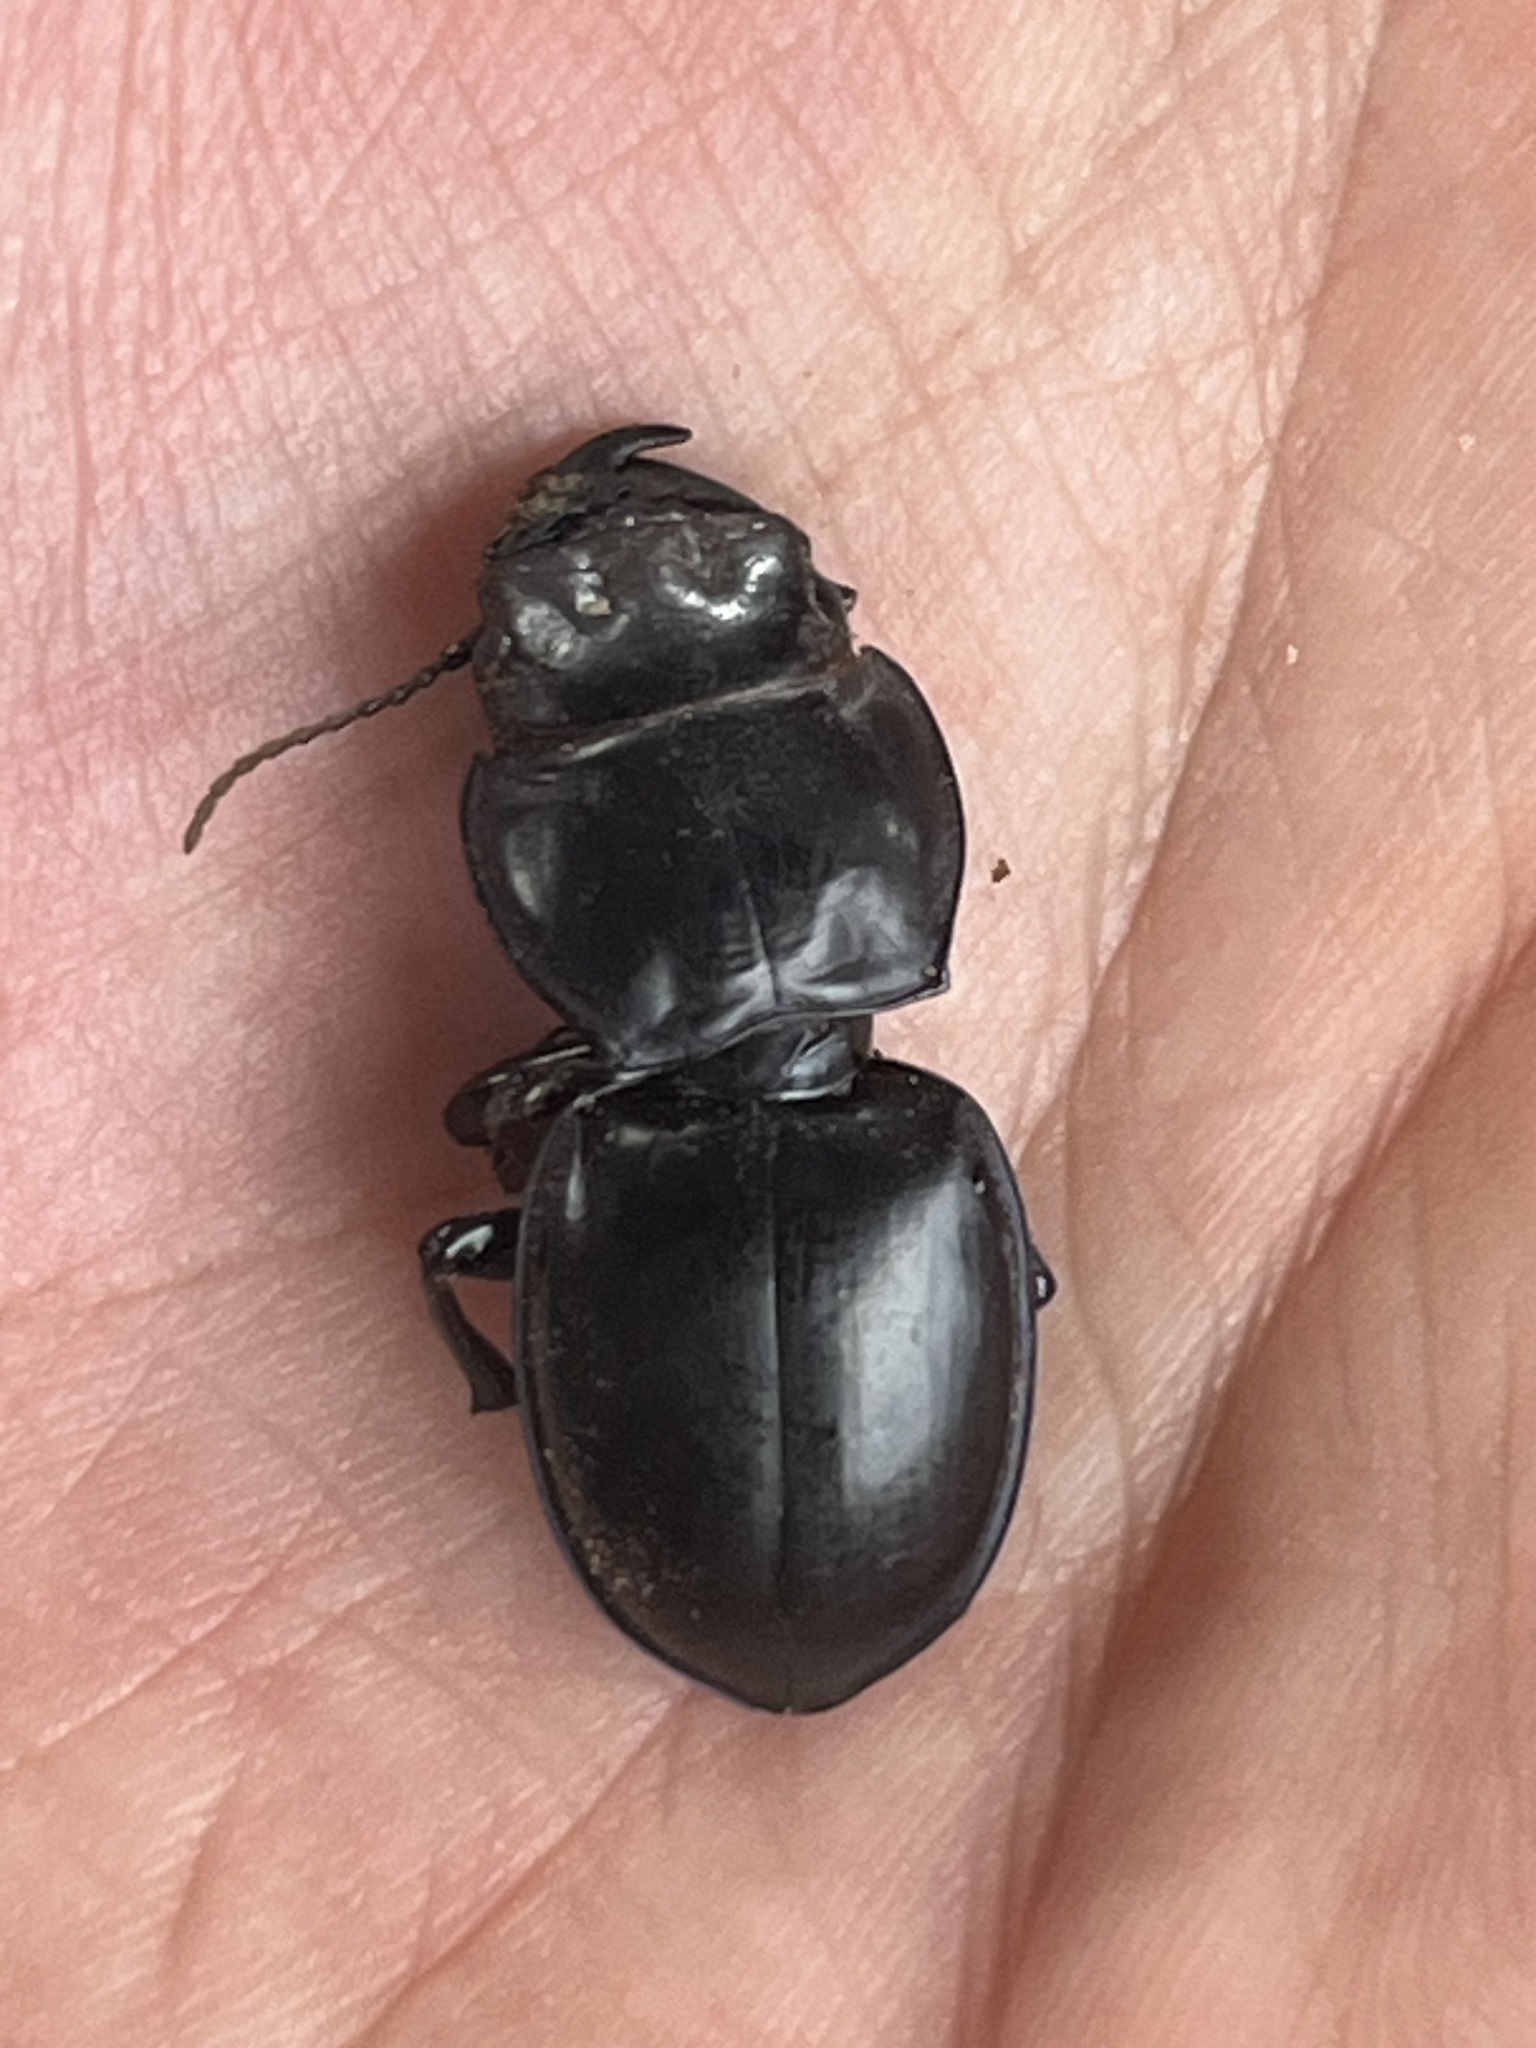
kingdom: Animalia
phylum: Arthropoda
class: Insecta
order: Coleoptera
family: Carabidae
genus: Pasimachus
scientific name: Pasimachus californicus
